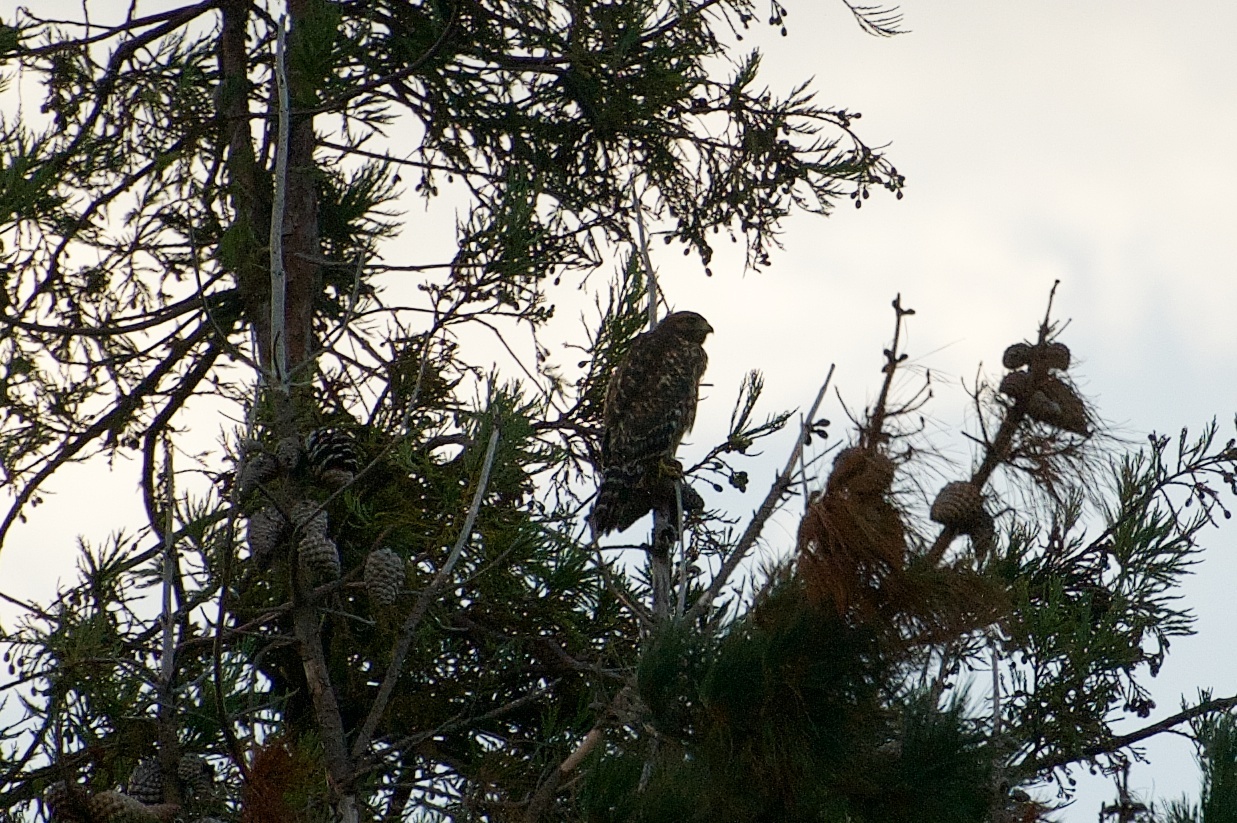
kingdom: Animalia
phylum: Chordata
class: Aves
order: Accipitriformes
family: Accipitridae
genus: Buteo
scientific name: Buteo lineatus
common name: Red-shouldered hawk
